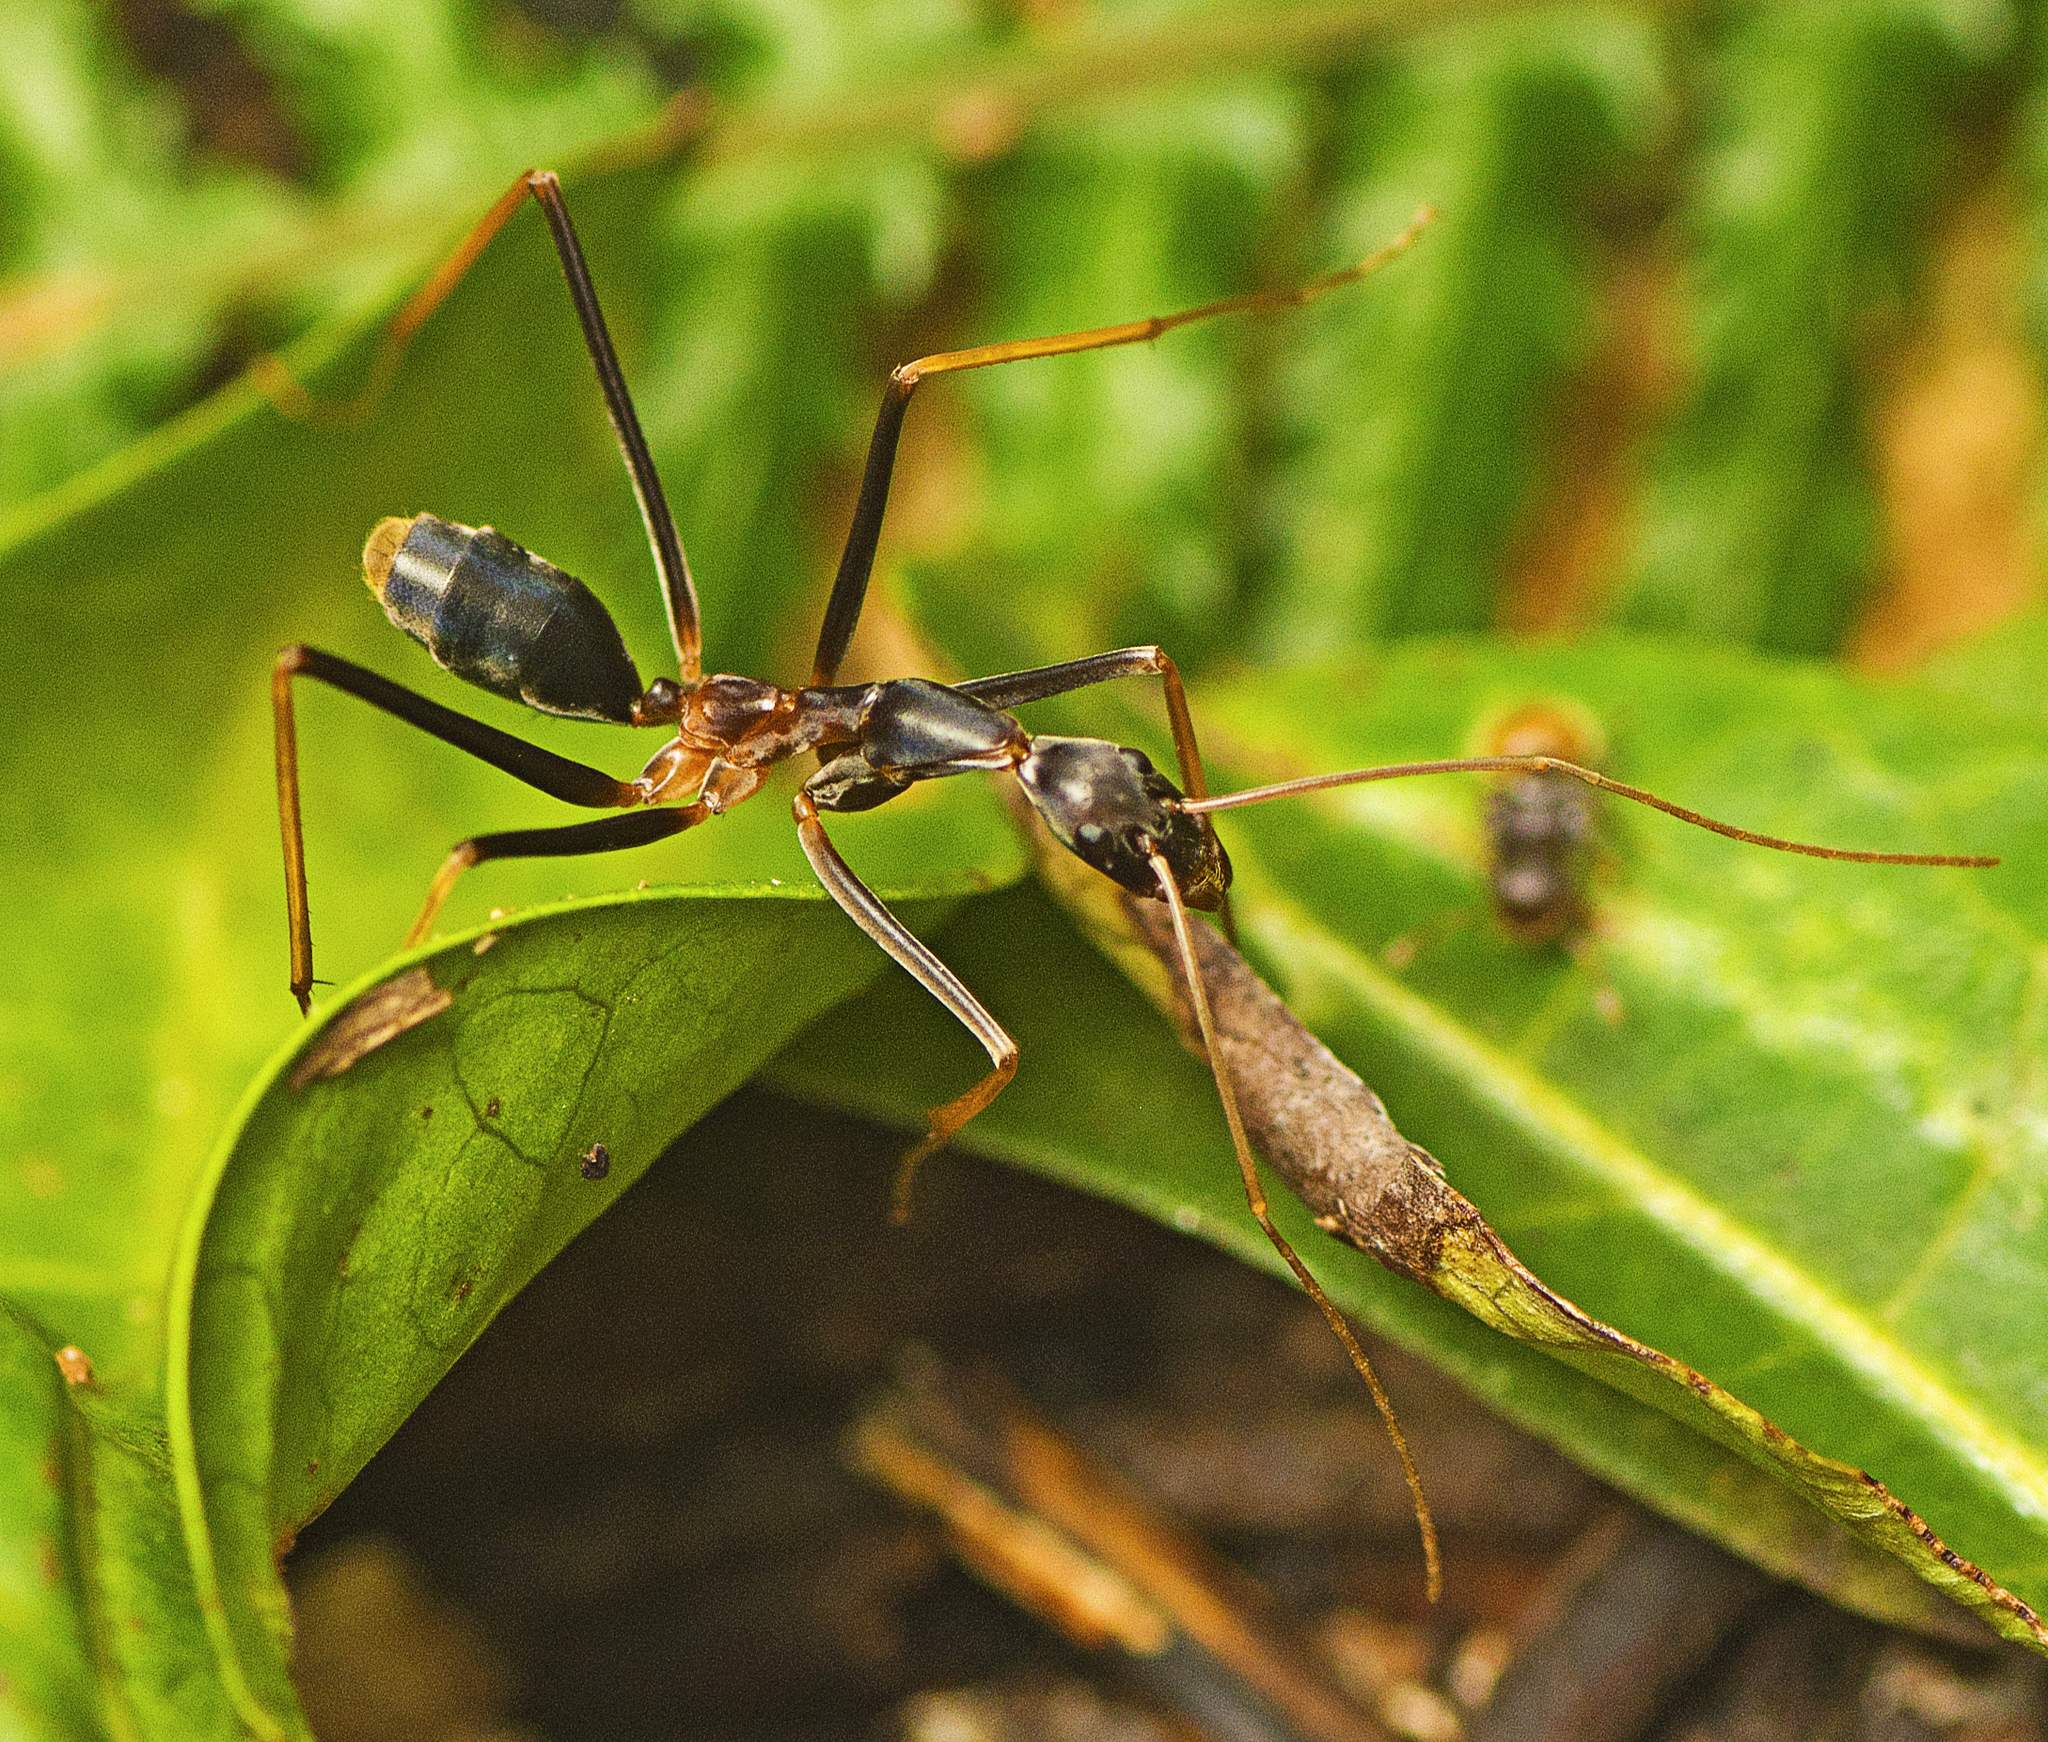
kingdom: Animalia
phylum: Arthropoda
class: Insecta
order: Hymenoptera
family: Formicidae
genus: Leptomyrmex
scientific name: Leptomyrmex rothneyi
